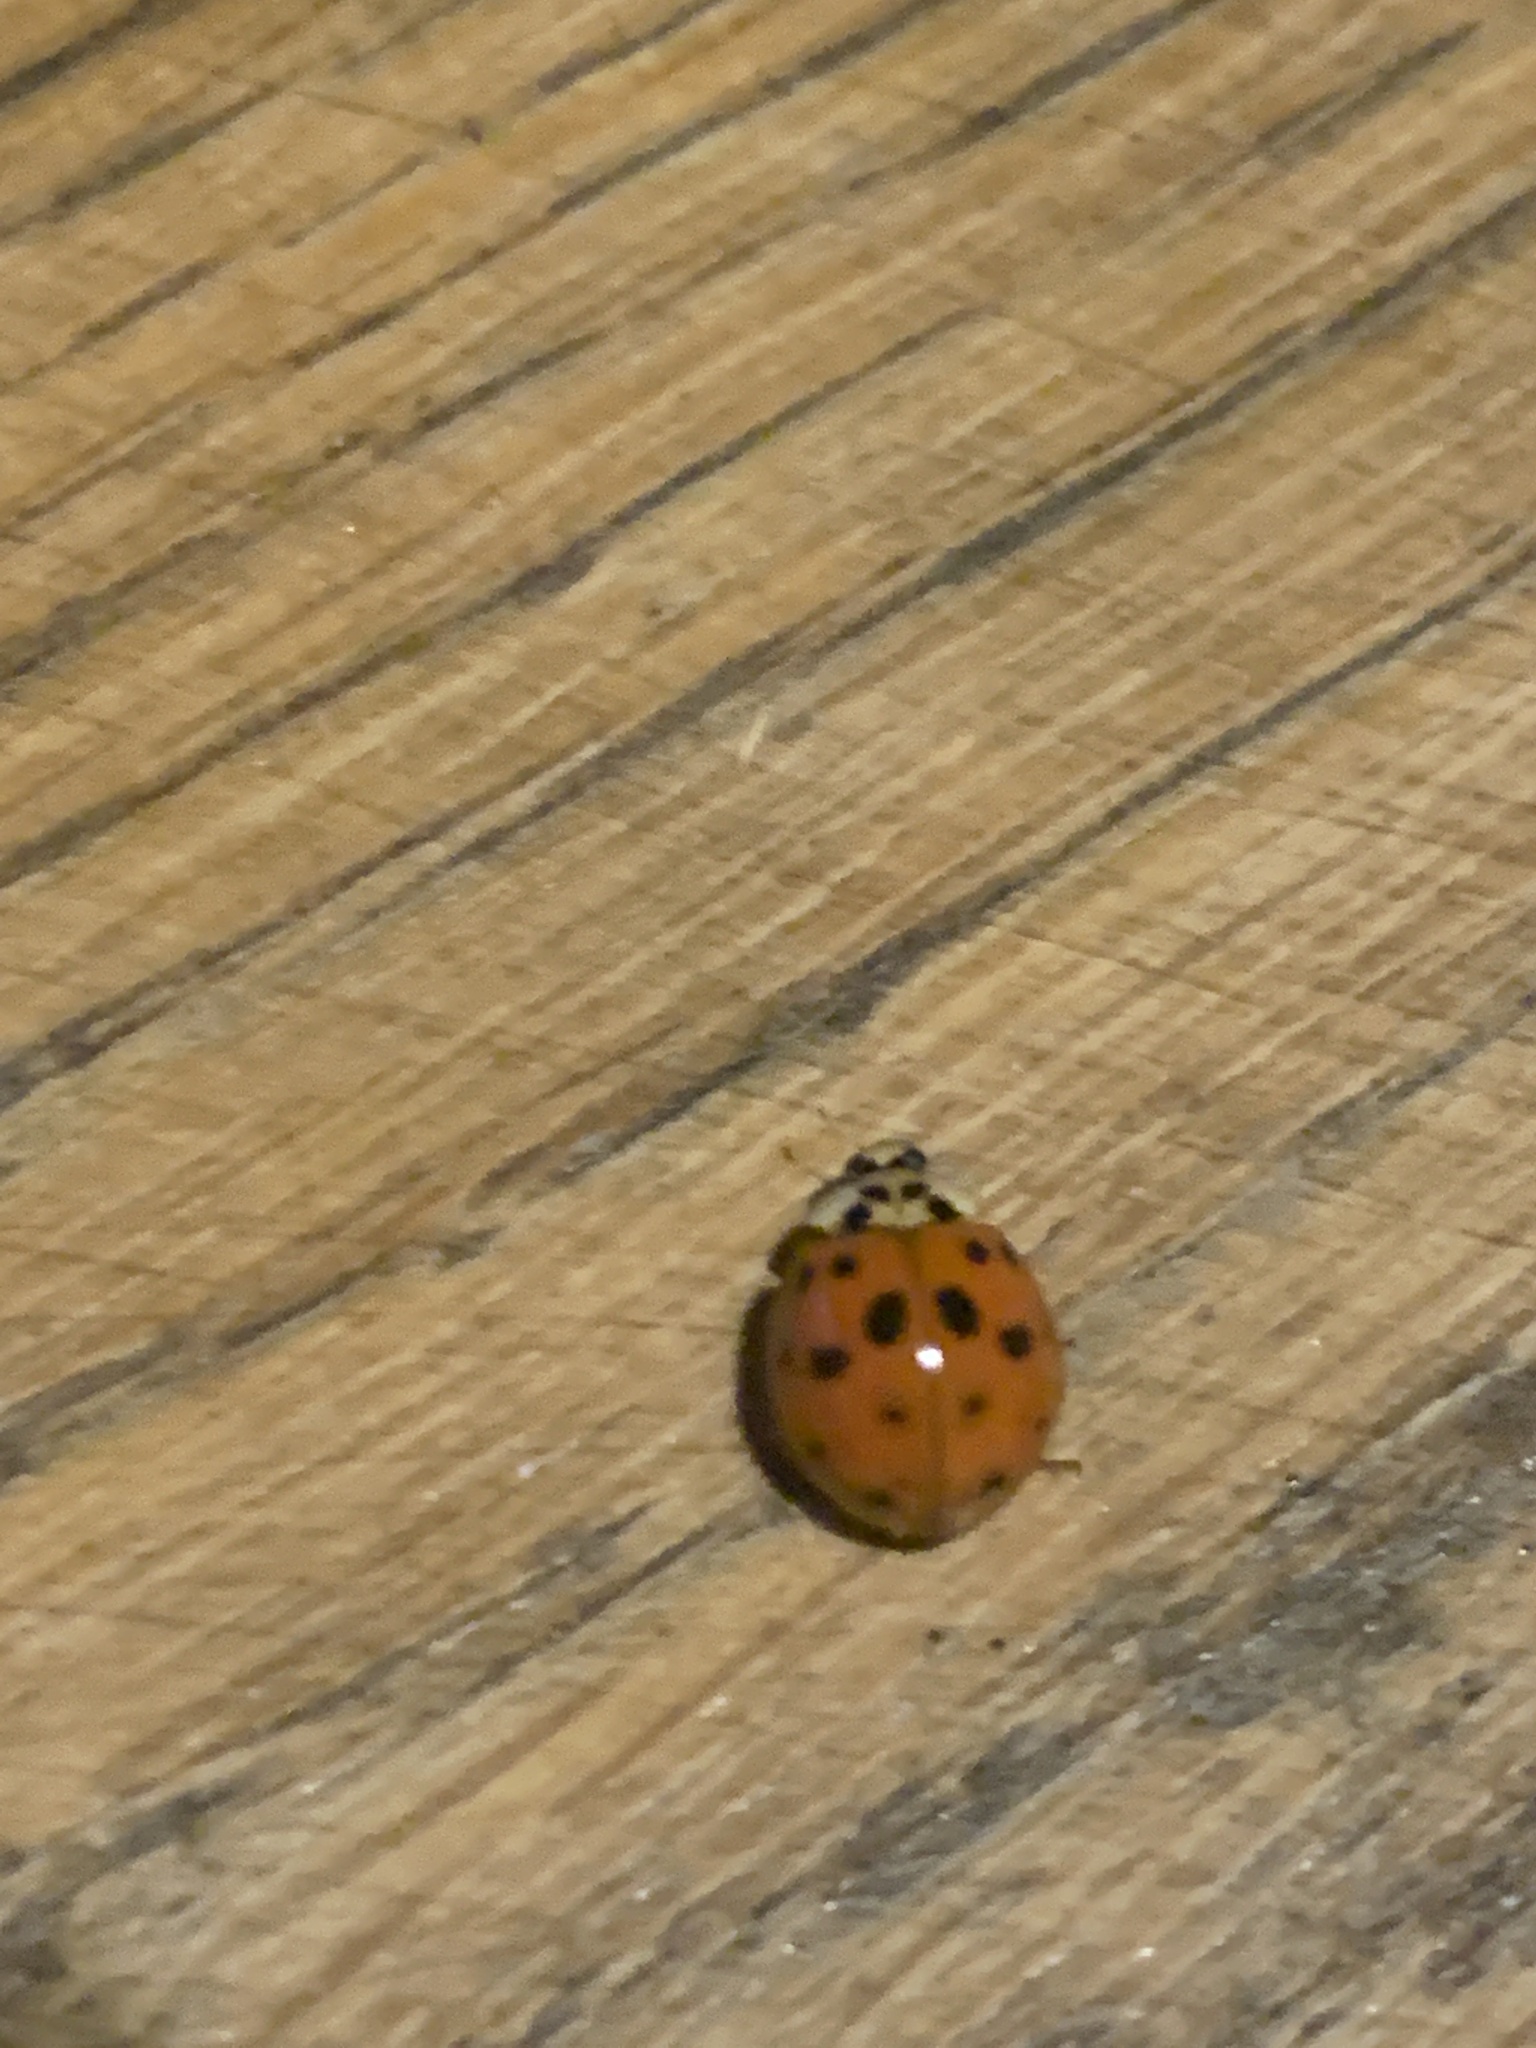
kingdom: Animalia
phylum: Arthropoda
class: Insecta
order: Coleoptera
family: Coccinellidae
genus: Harmonia
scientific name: Harmonia axyridis
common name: Harlequin ladybird
